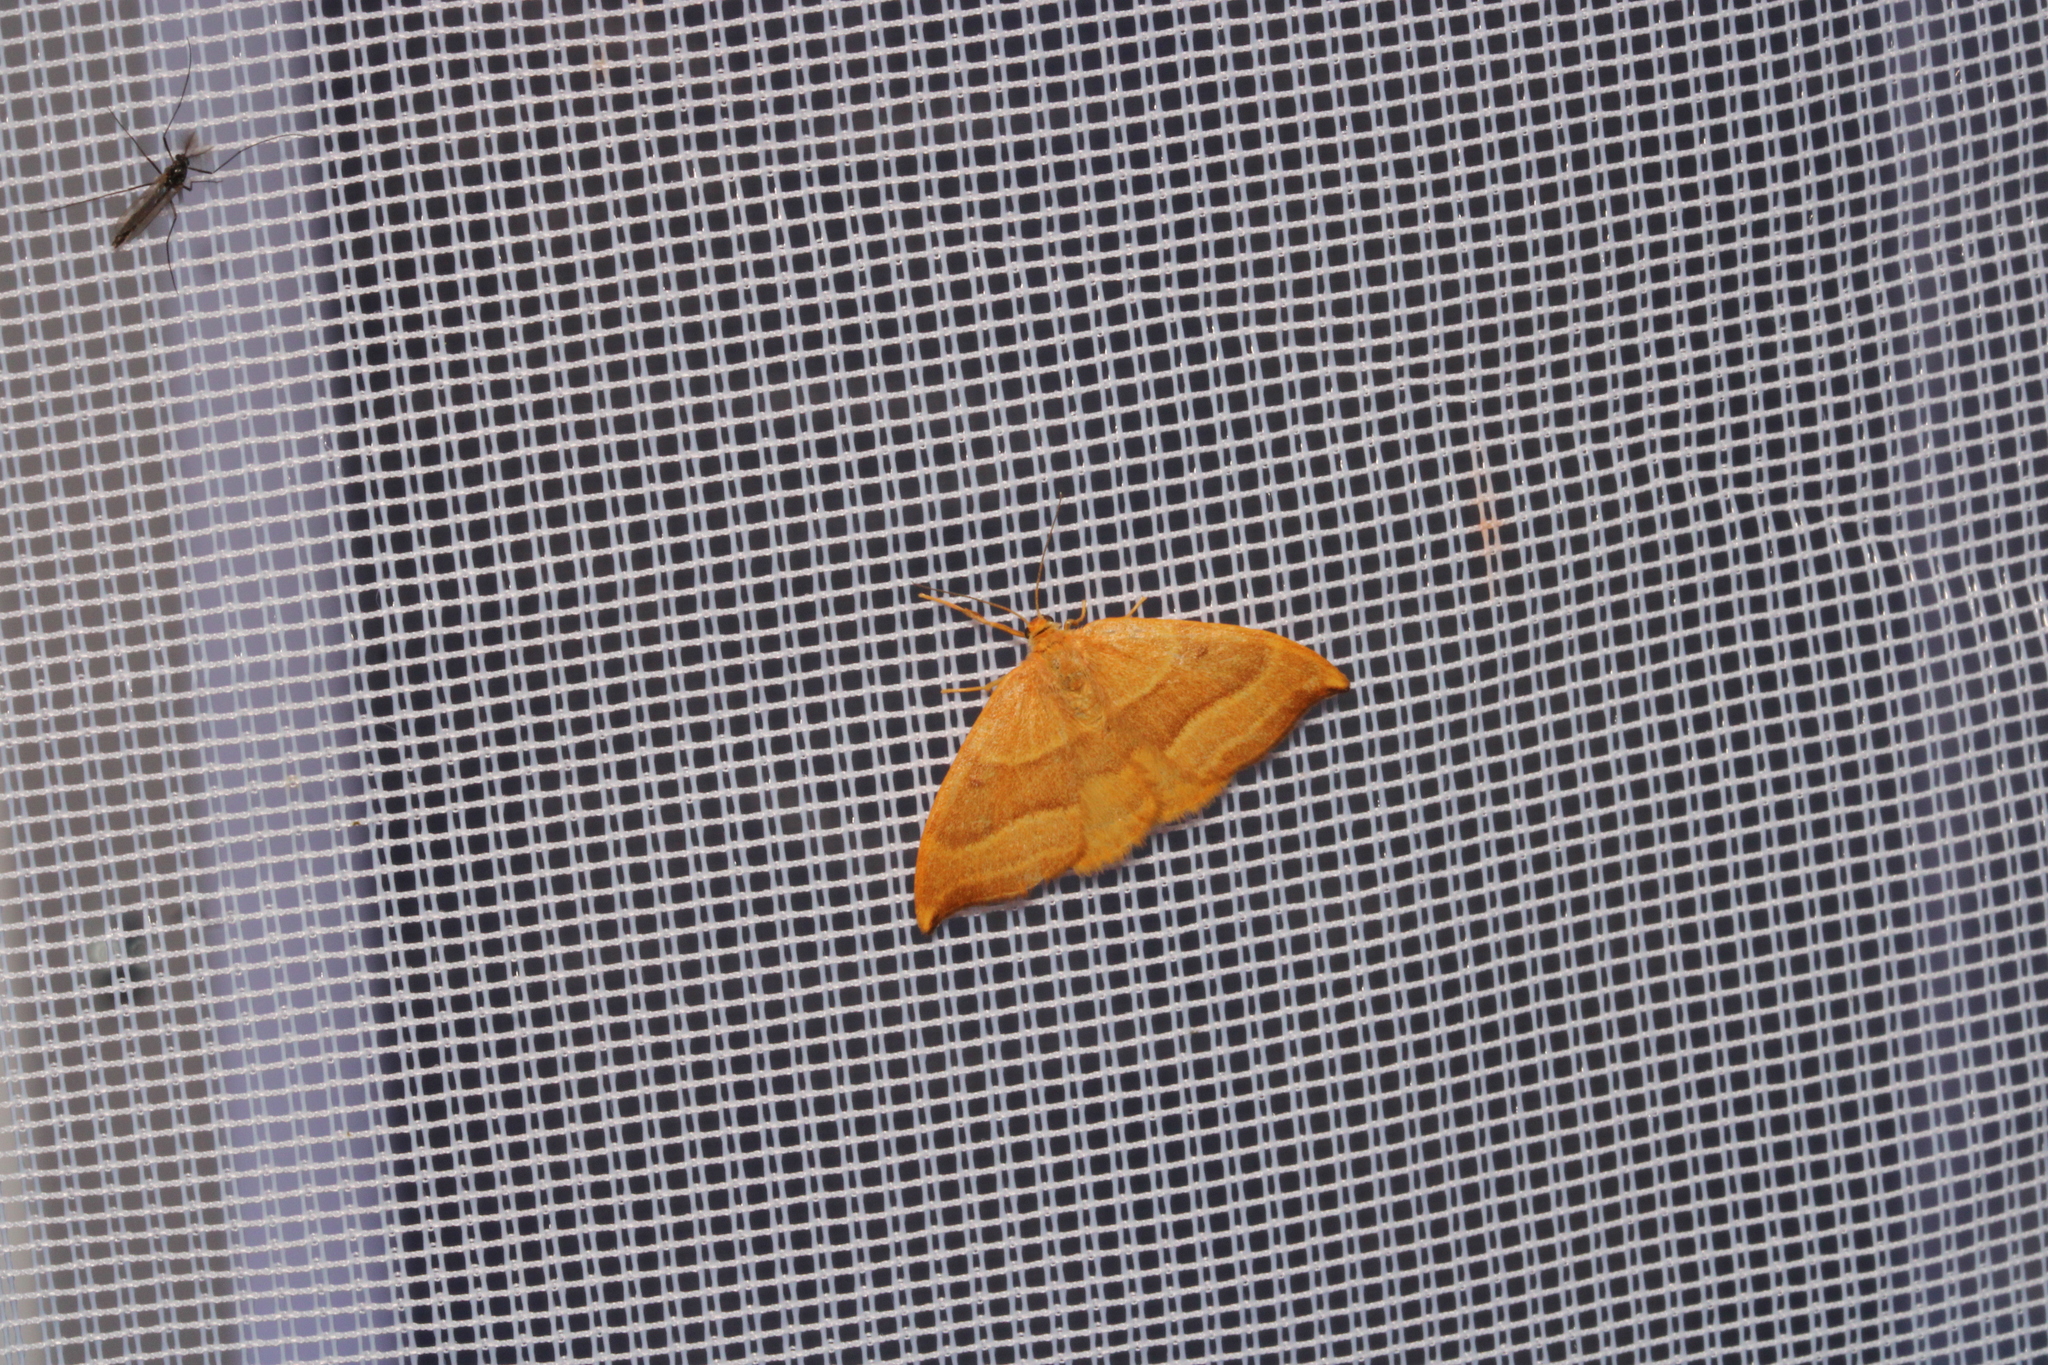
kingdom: Animalia
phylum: Arthropoda
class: Insecta
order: Lepidoptera
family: Drepanidae
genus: Watsonalla
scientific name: Watsonalla cultraria
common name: Barred hook-tip
